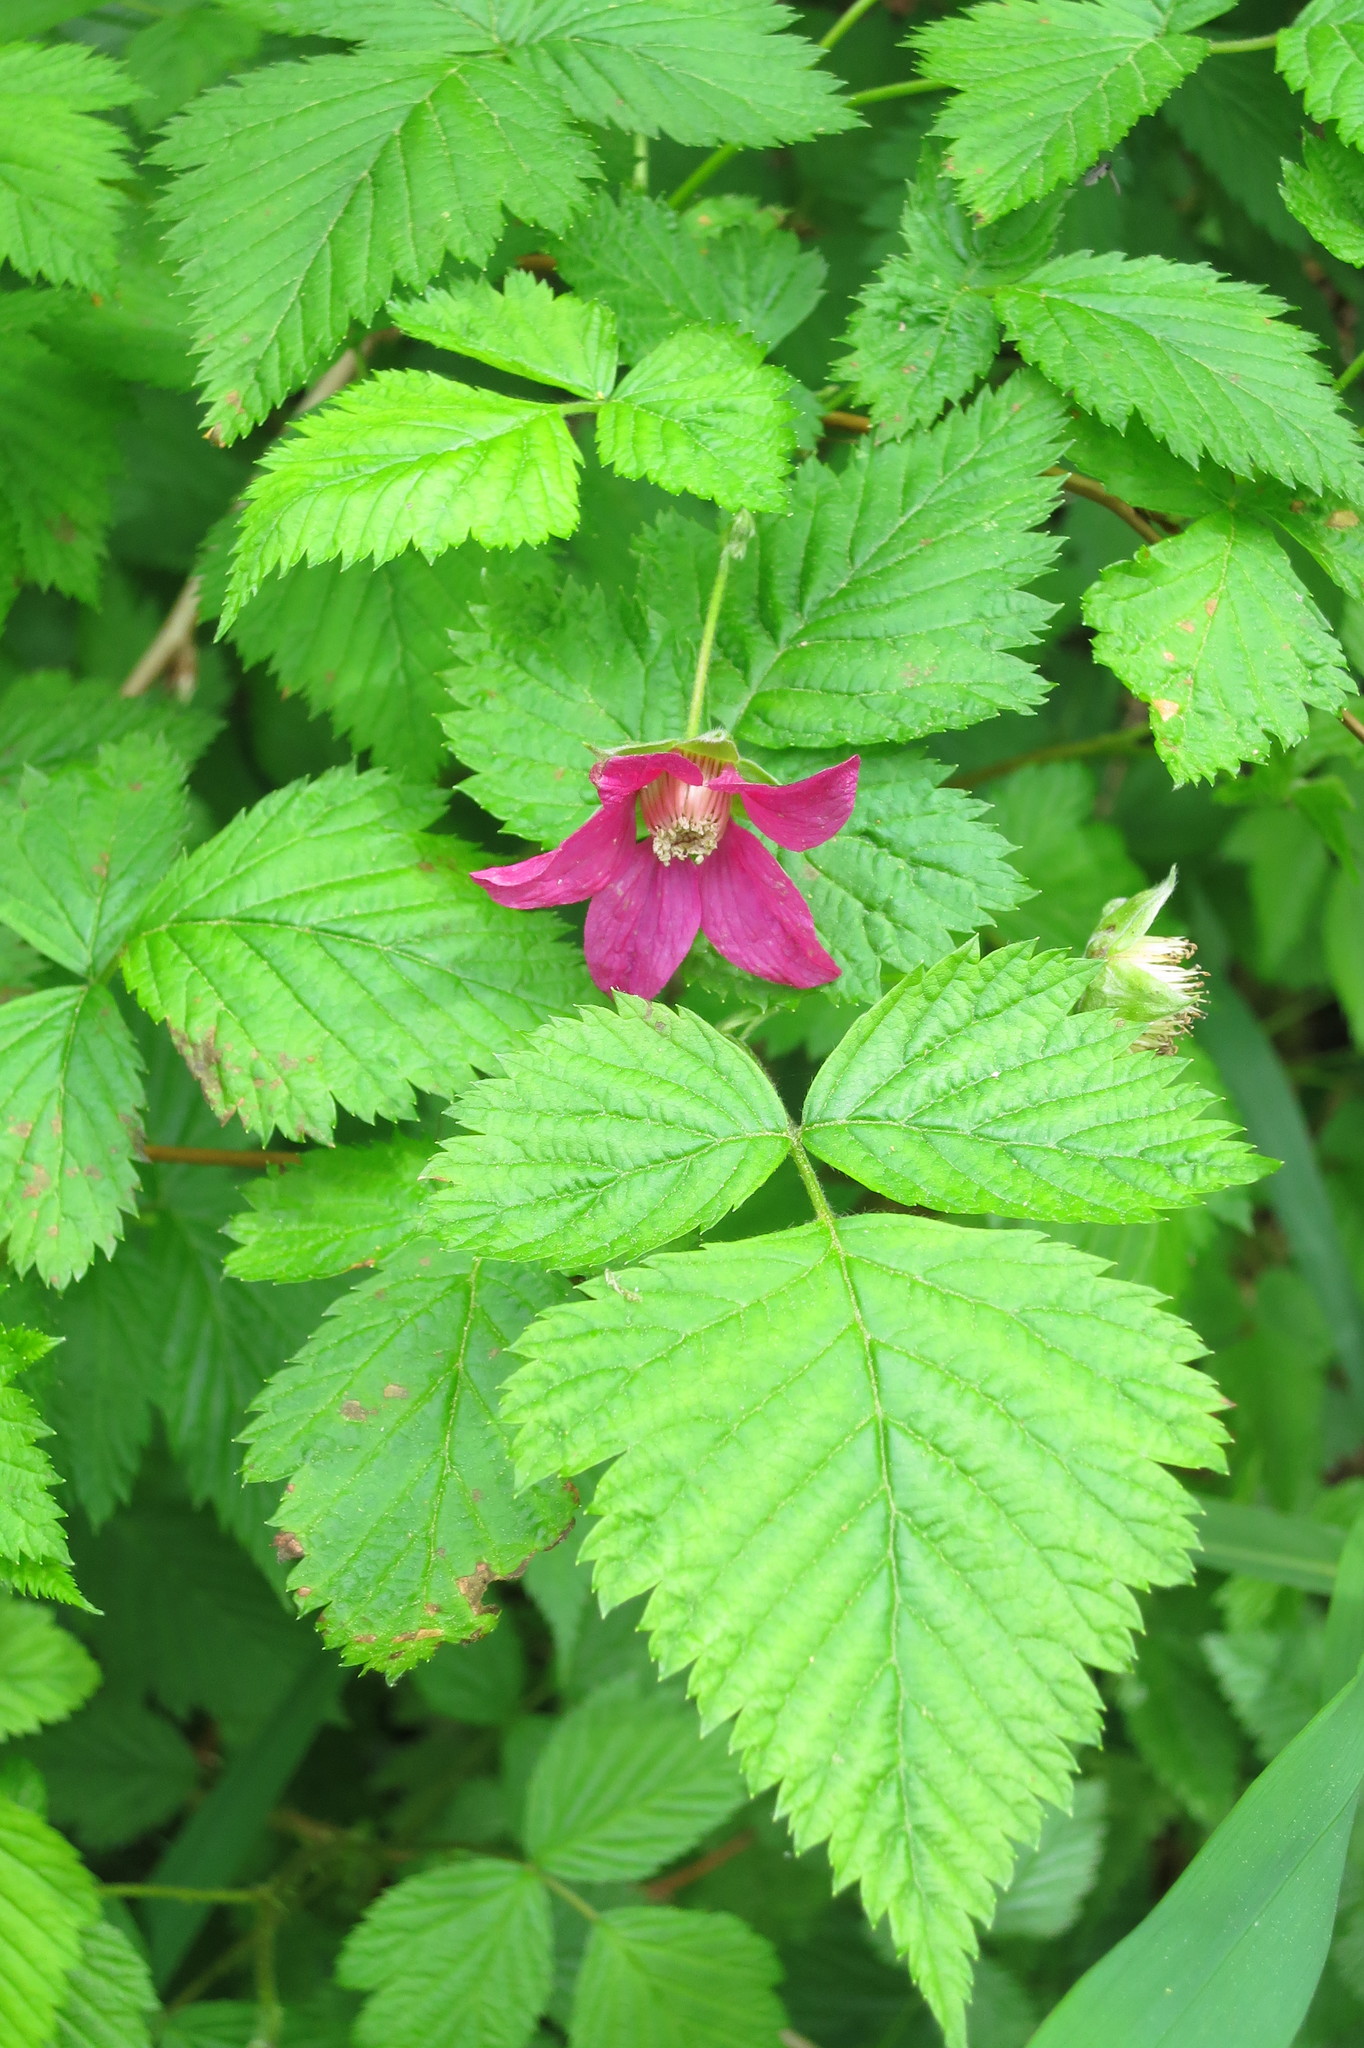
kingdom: Plantae
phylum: Tracheophyta
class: Magnoliopsida
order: Rosales
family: Rosaceae
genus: Rubus
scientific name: Rubus spectabilis
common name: Salmonberry
